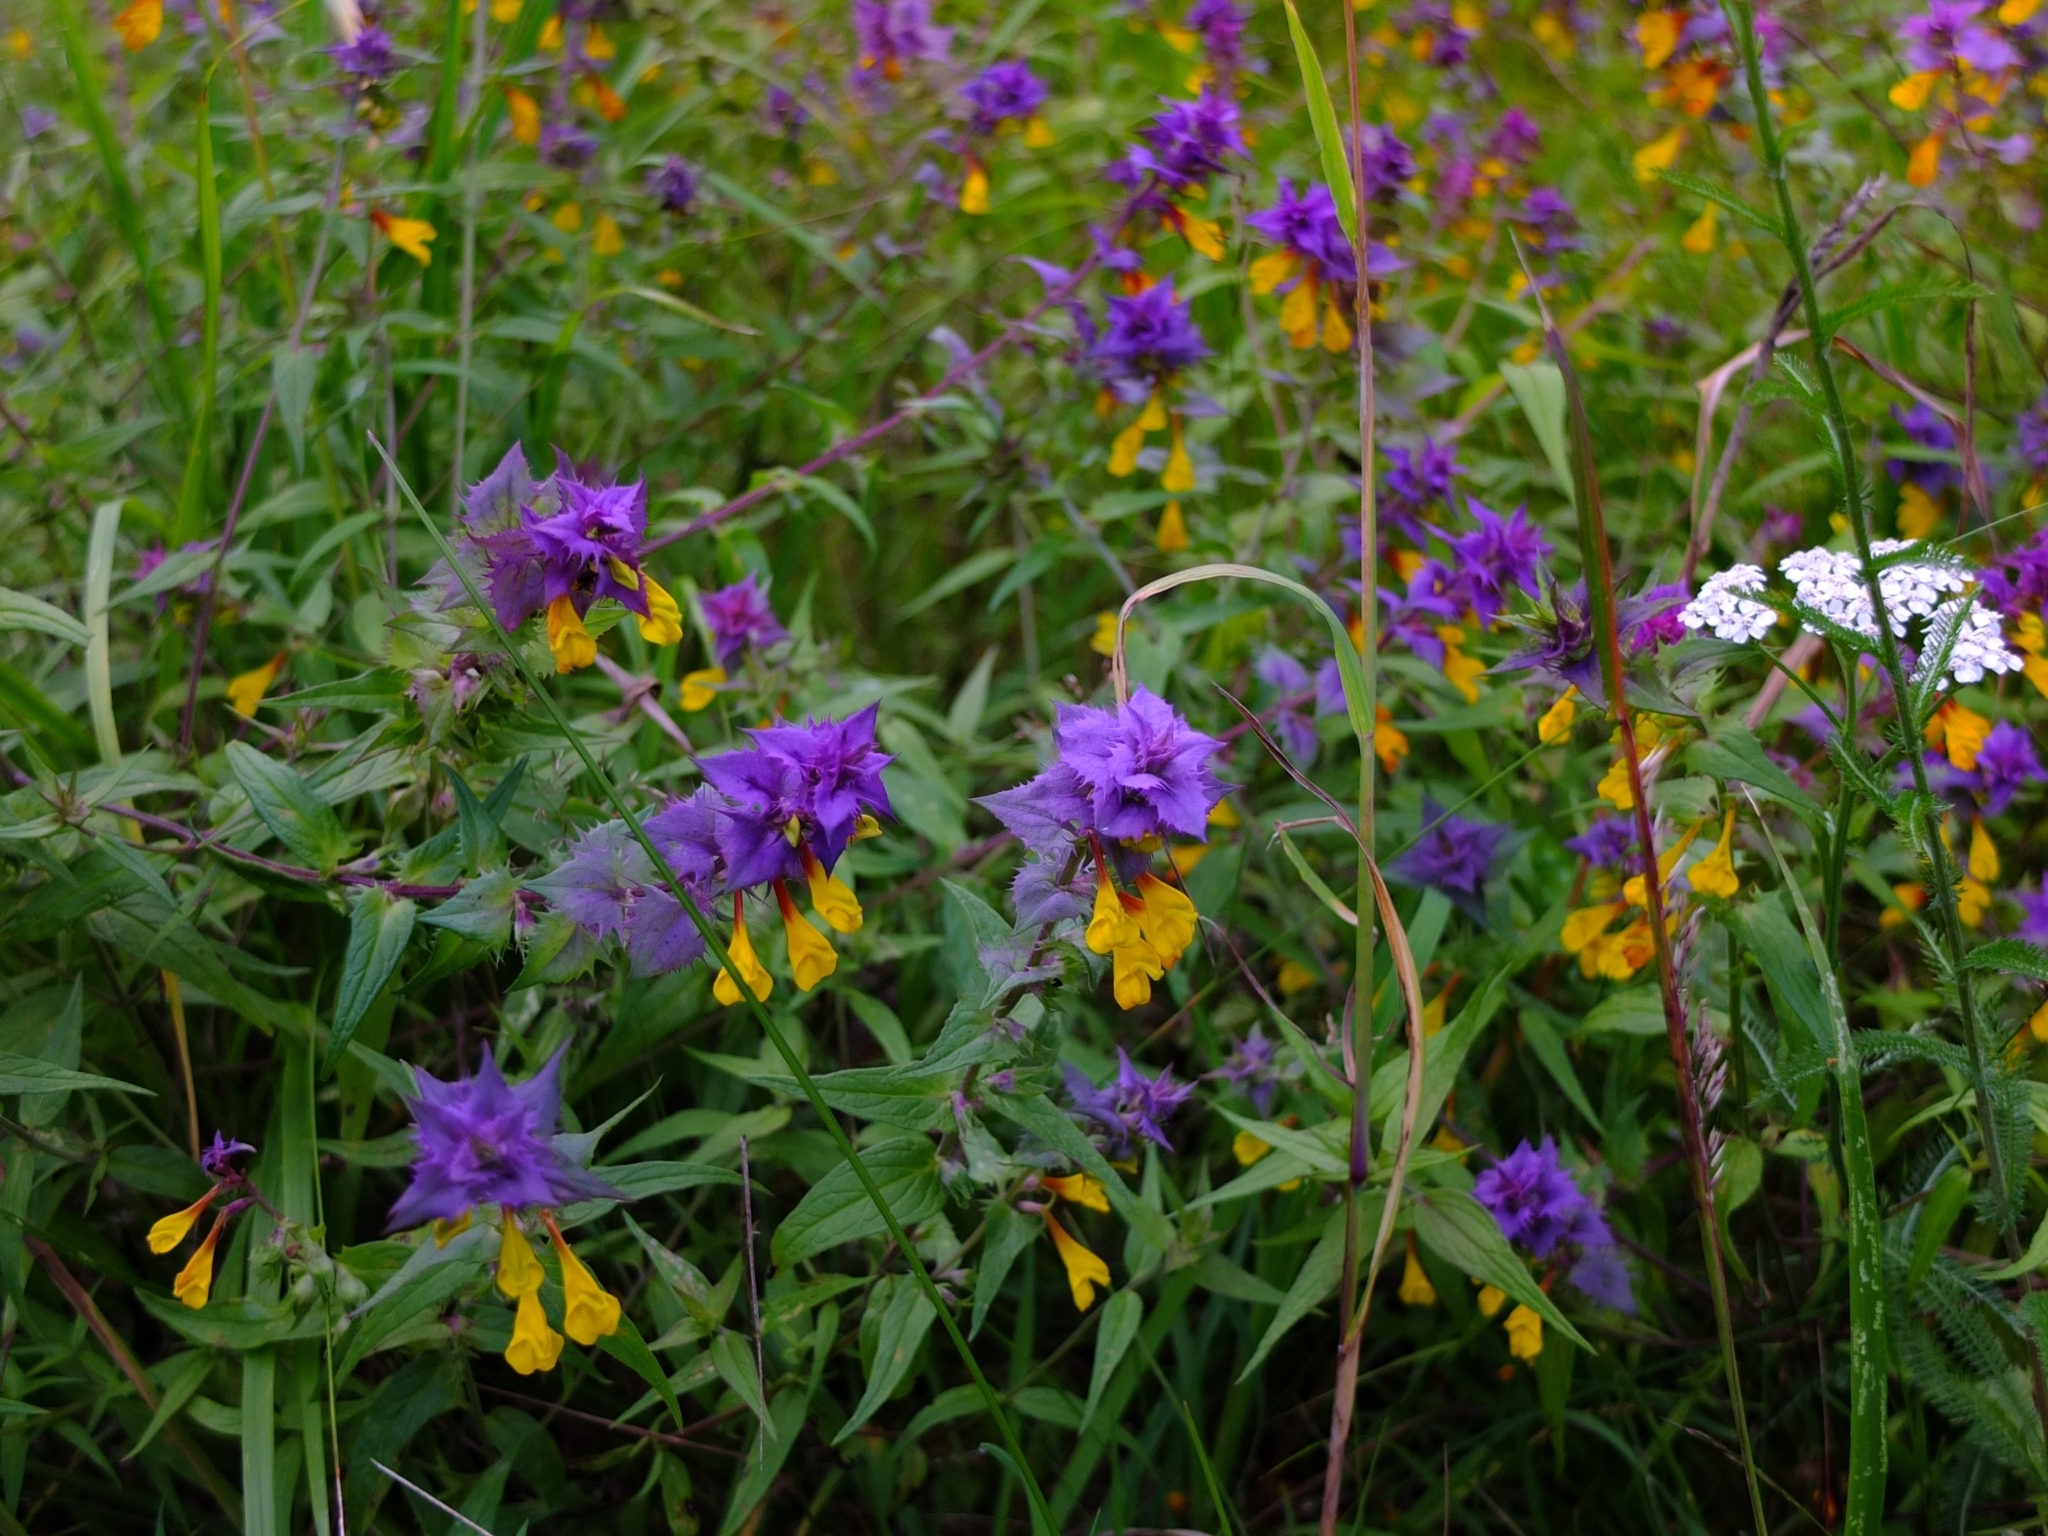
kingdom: Plantae
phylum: Tracheophyta
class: Magnoliopsida
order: Lamiales
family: Orobanchaceae
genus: Melampyrum
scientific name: Melampyrum nemorosum
